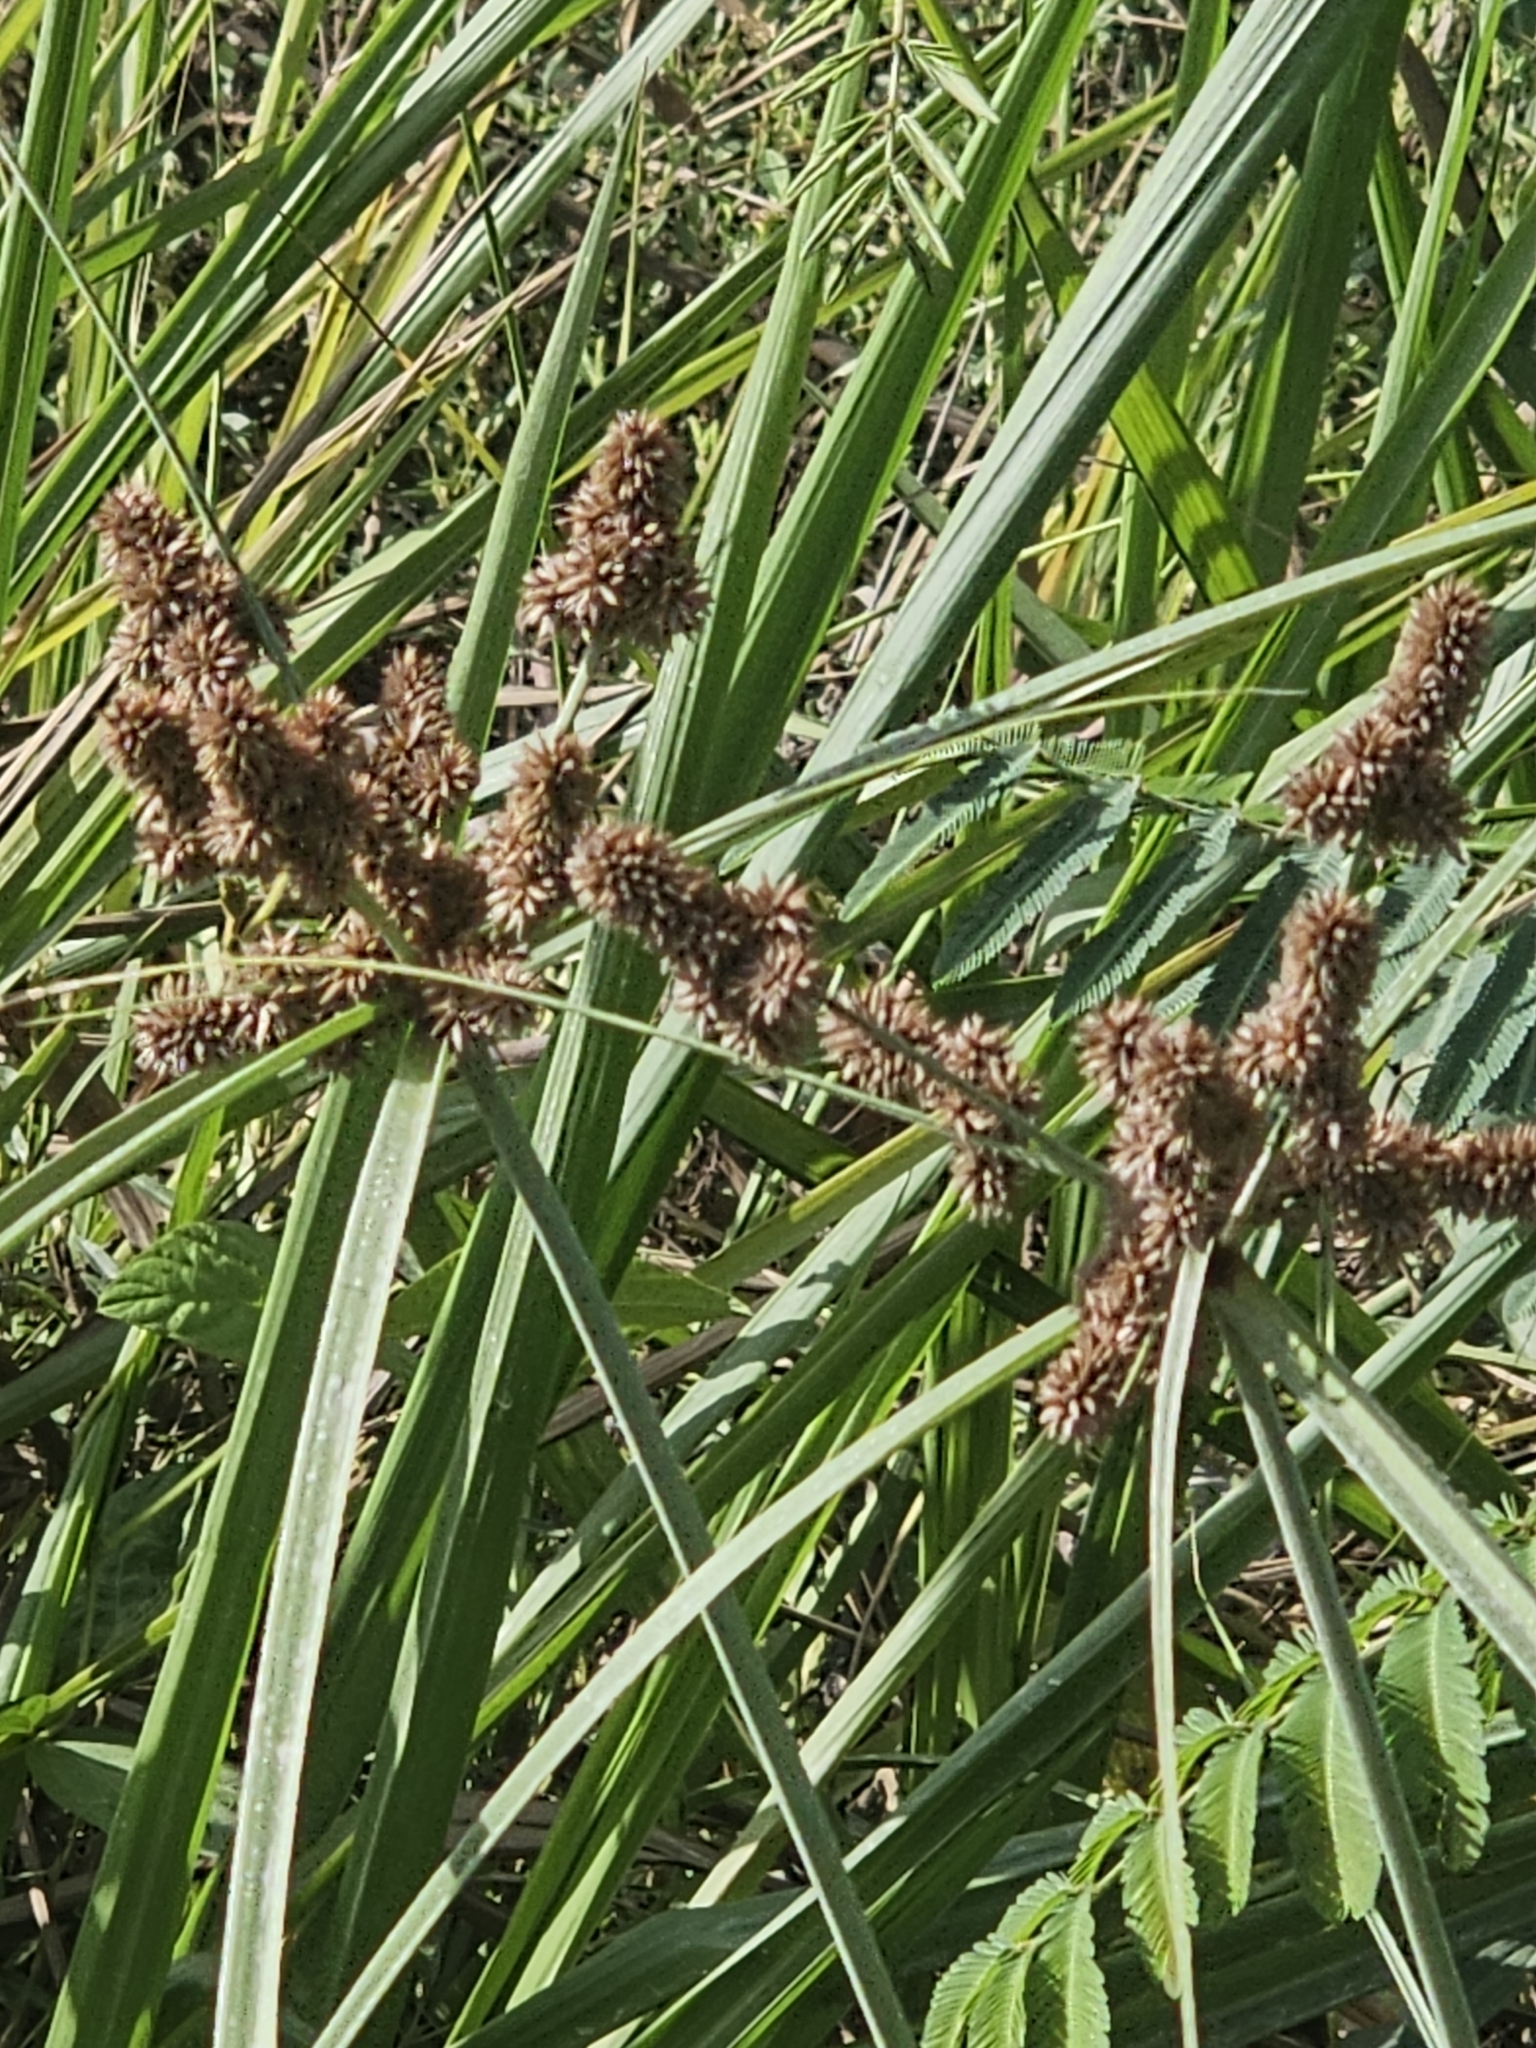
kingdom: Plantae
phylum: Tracheophyta
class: Liliopsida
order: Poales
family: Cyperaceae
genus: Cyperus
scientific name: Cyperus ligularis
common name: Swamp flat sedge
